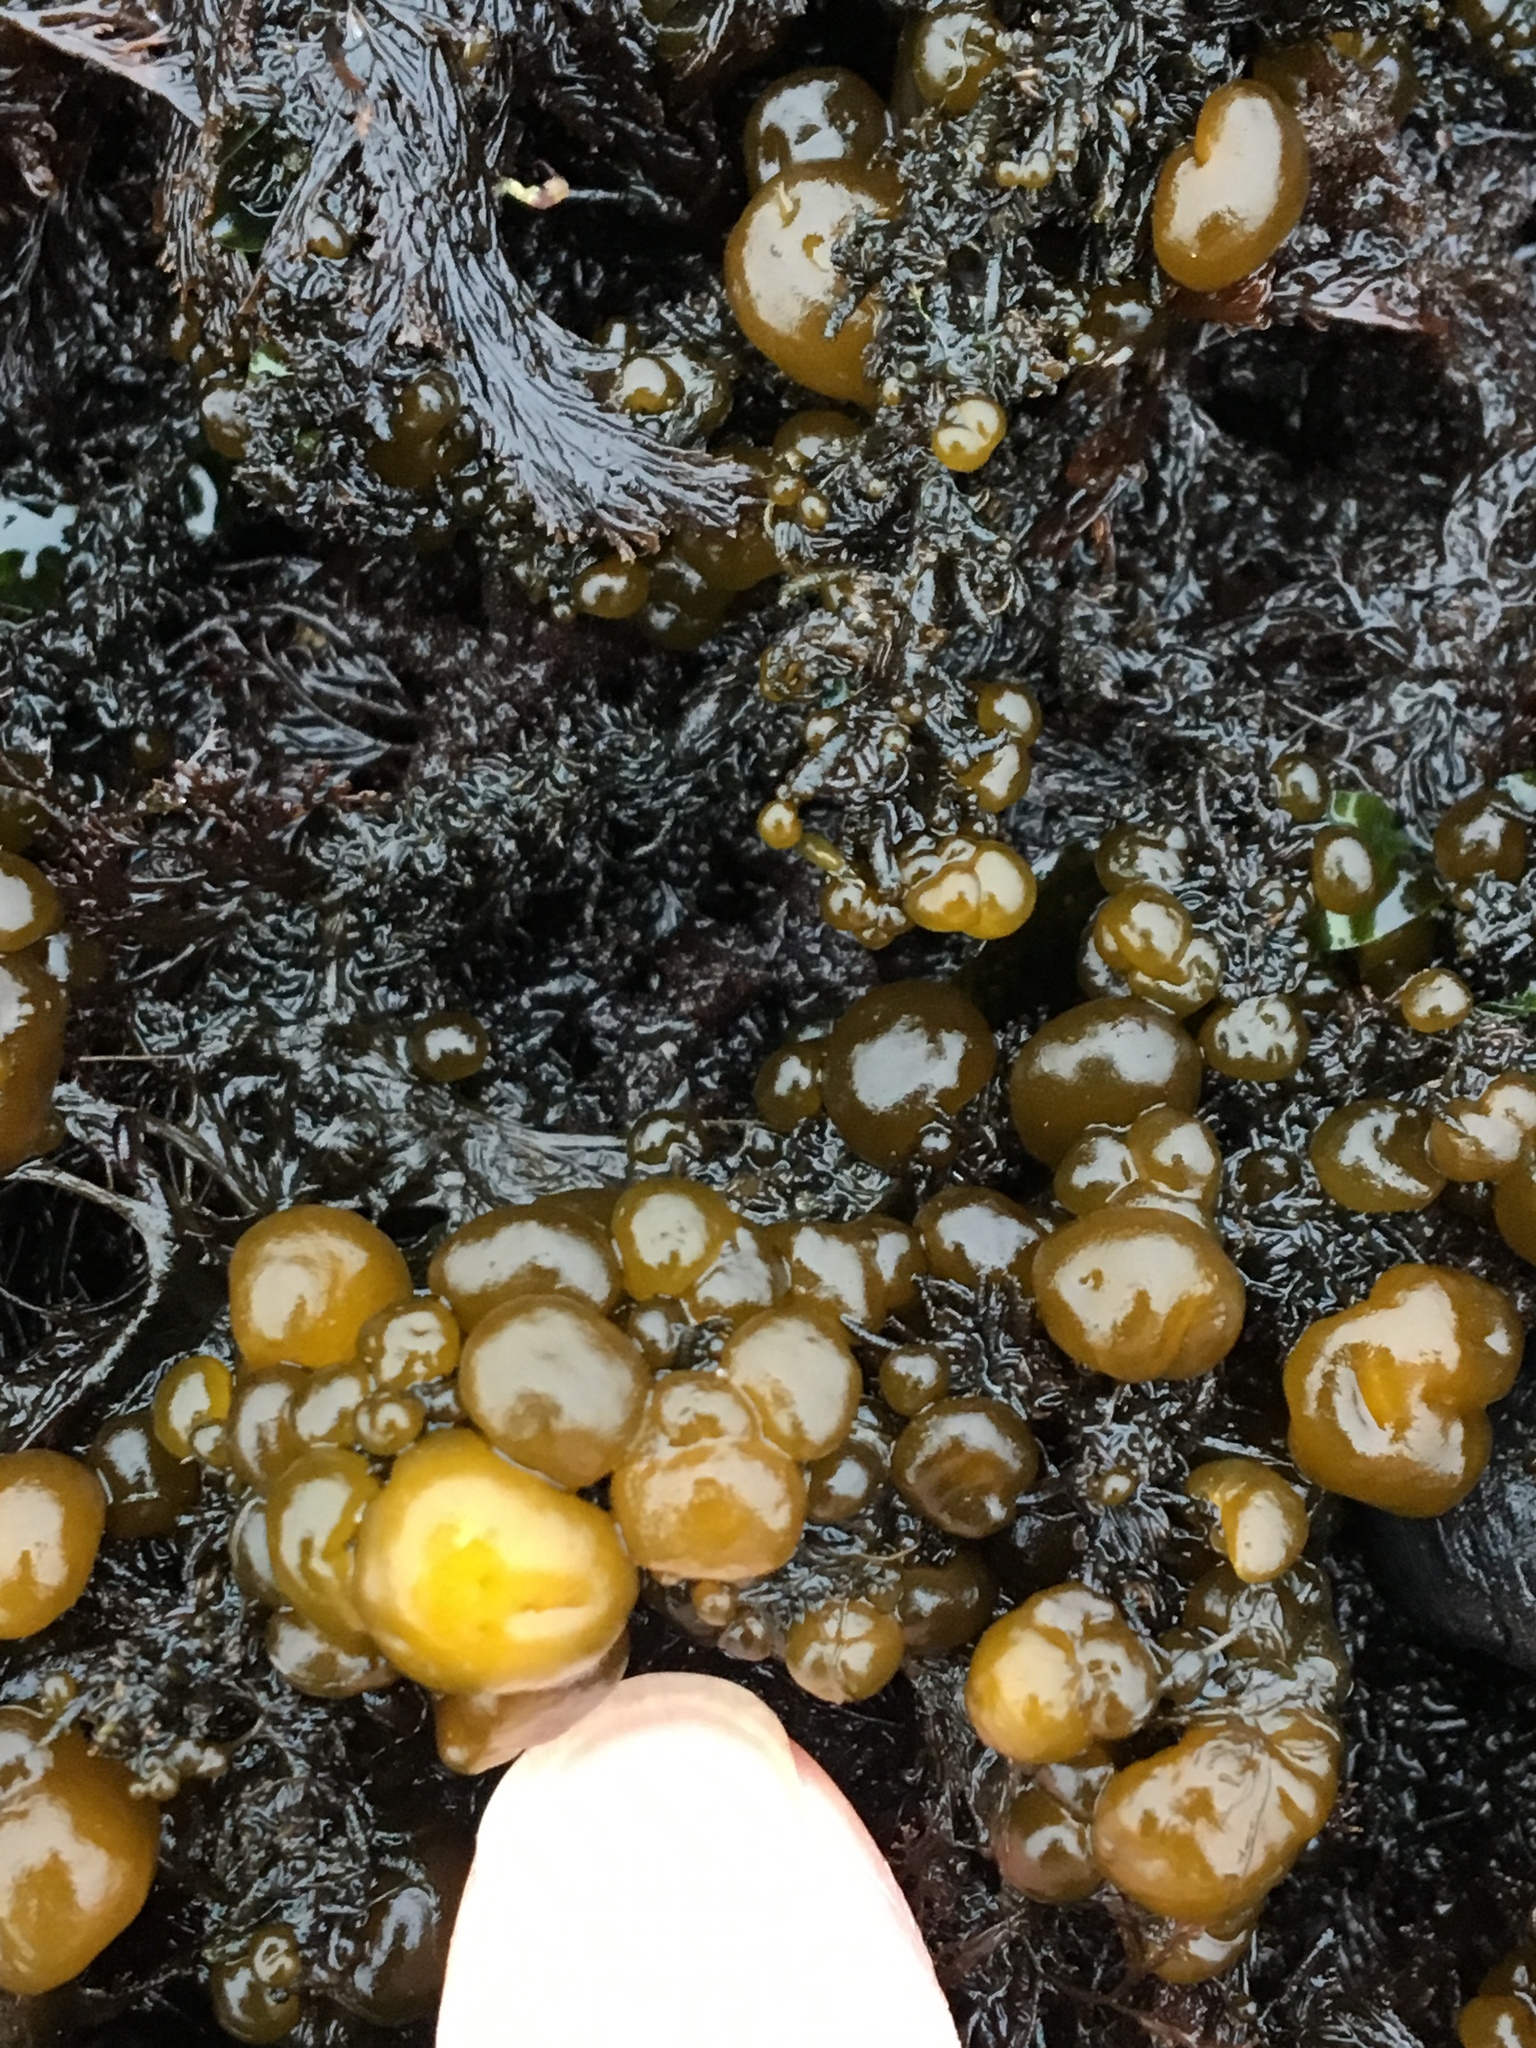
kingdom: Plantae
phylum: Rhodophyta
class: Florideophyceae
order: Palmariales
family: Palmariaceae
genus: Halosaccion
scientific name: Halosaccion glandiforme
